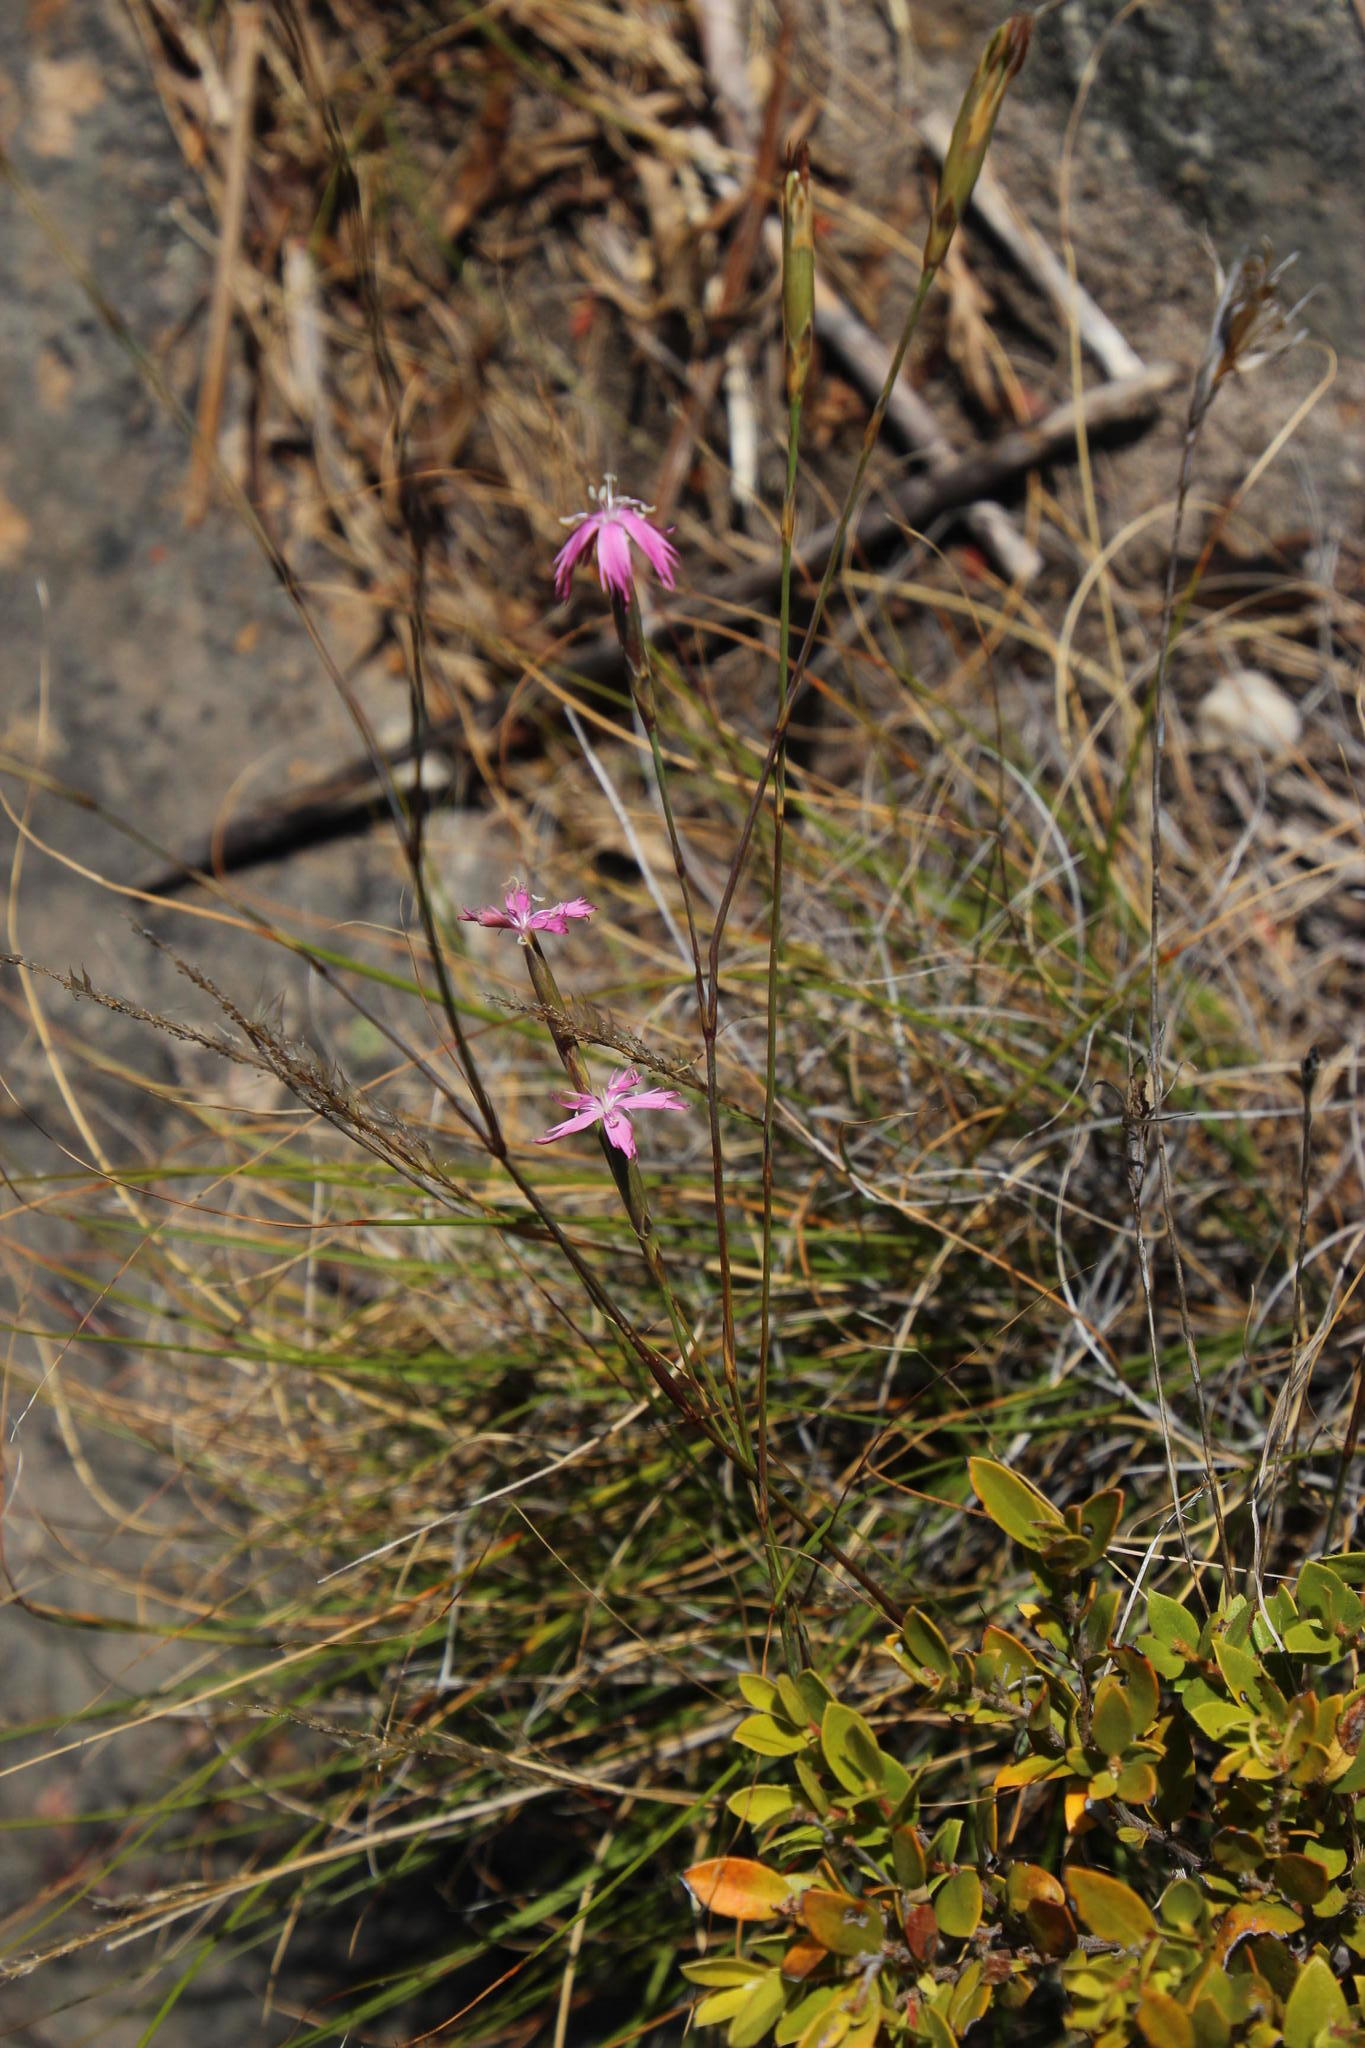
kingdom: Plantae
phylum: Tracheophyta
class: Magnoliopsida
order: Caryophyllales
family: Caryophyllaceae
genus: Dianthus
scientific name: Dianthus bolusii
